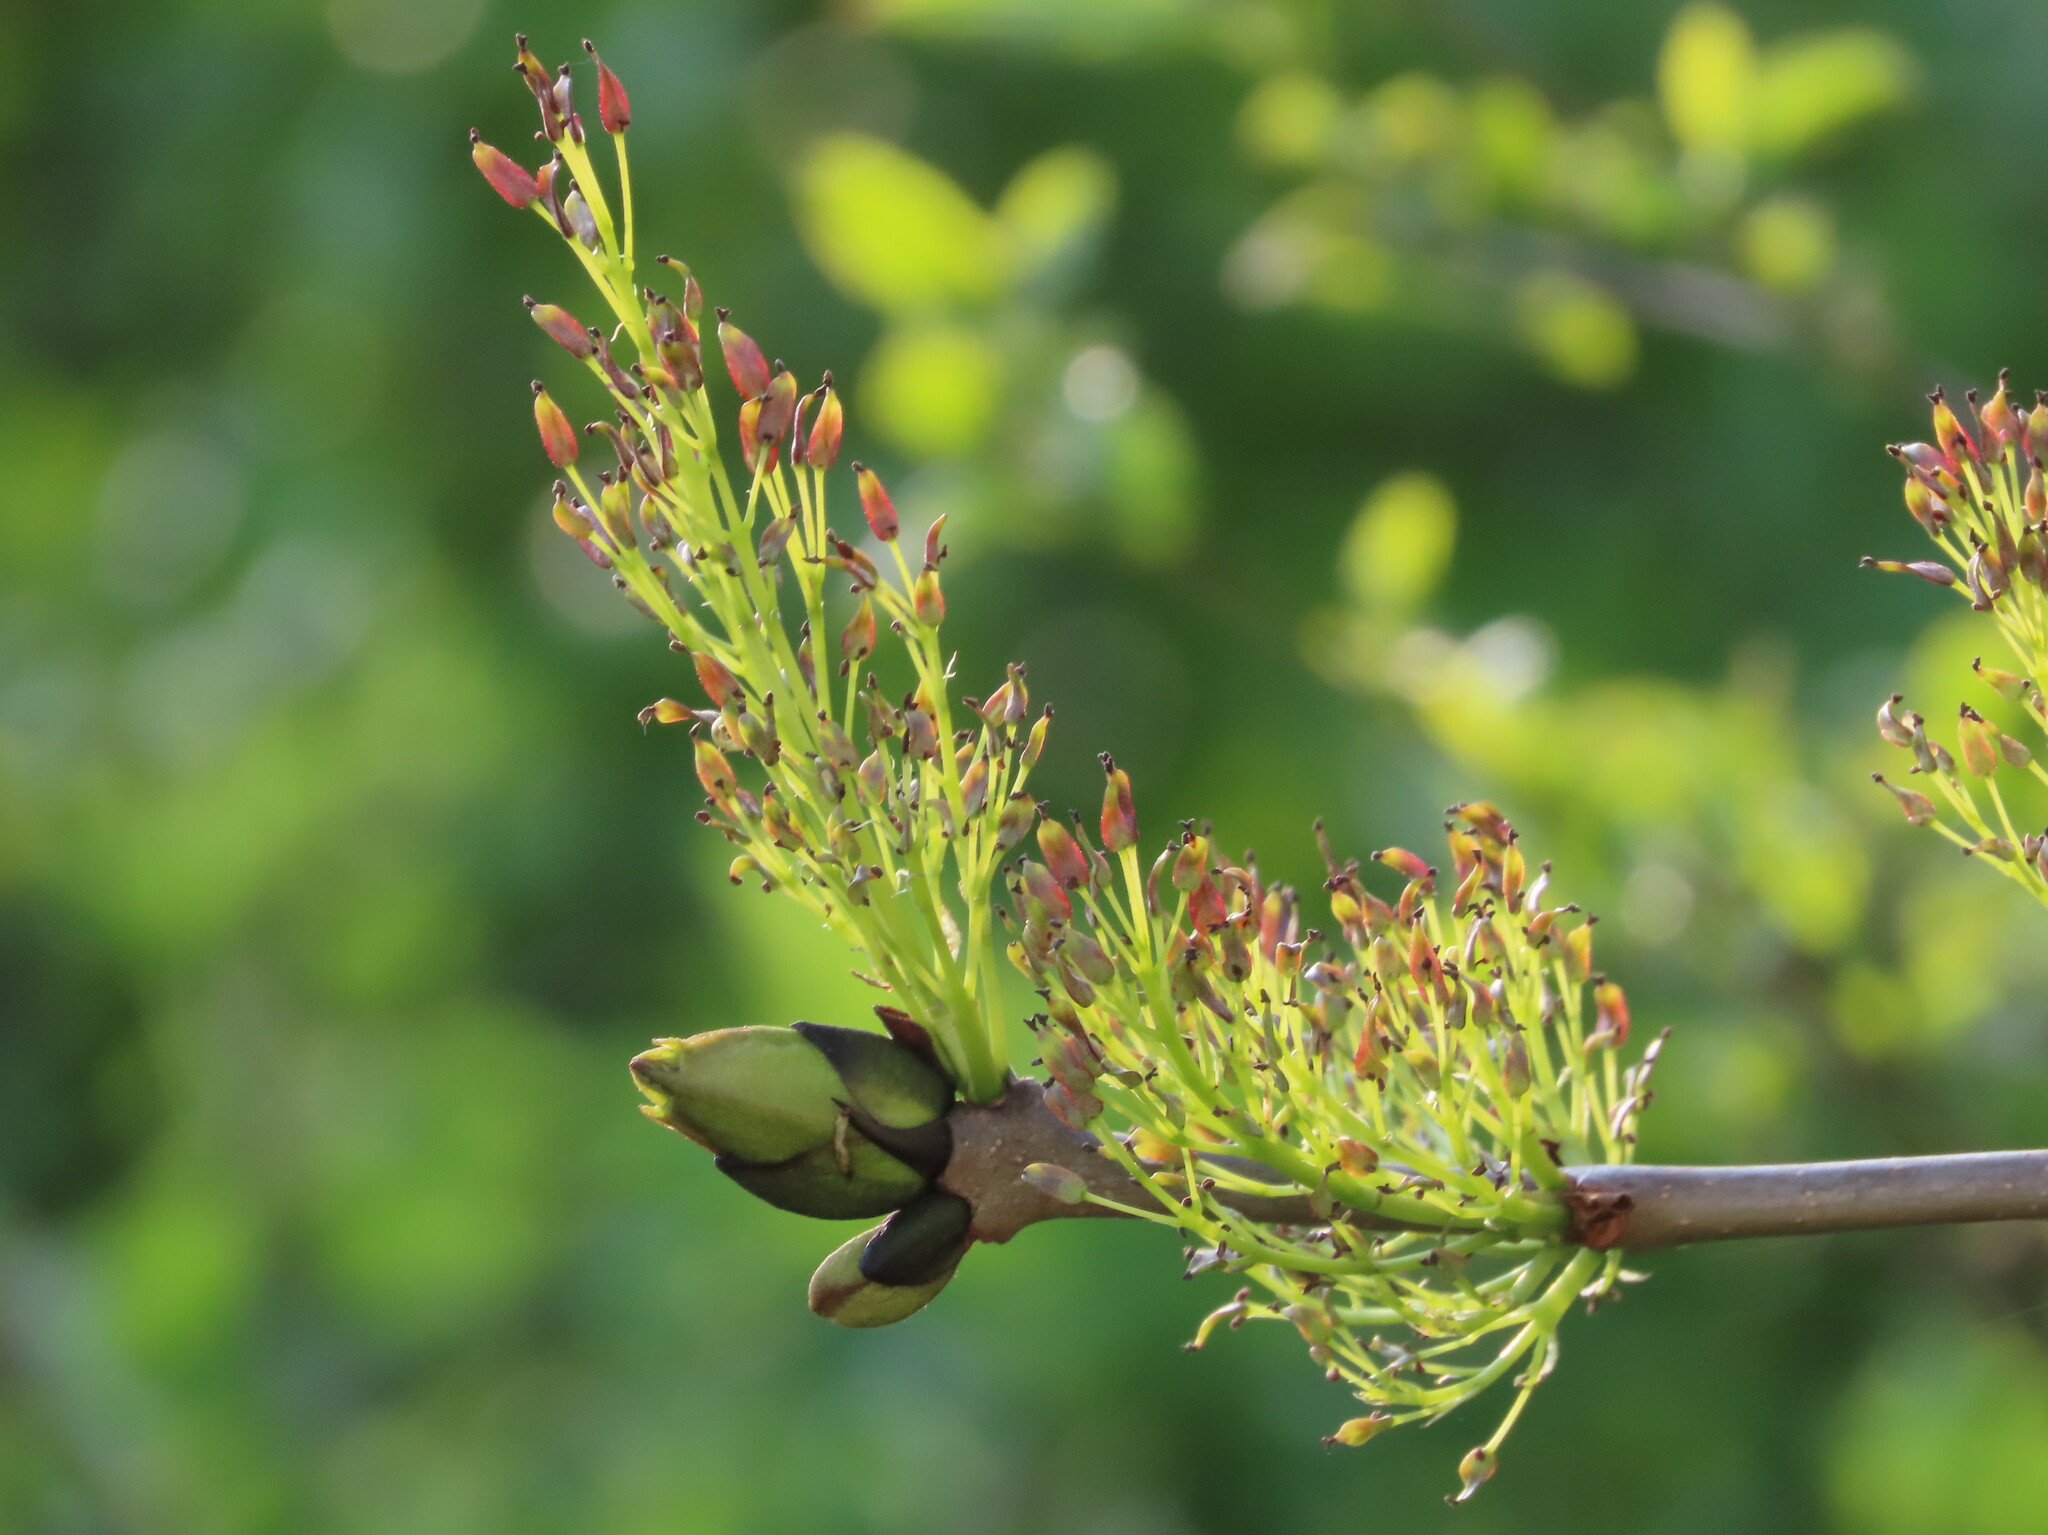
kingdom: Plantae
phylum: Tracheophyta
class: Magnoliopsida
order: Lamiales
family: Oleaceae
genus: Fraxinus
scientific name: Fraxinus excelsior
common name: European ash
